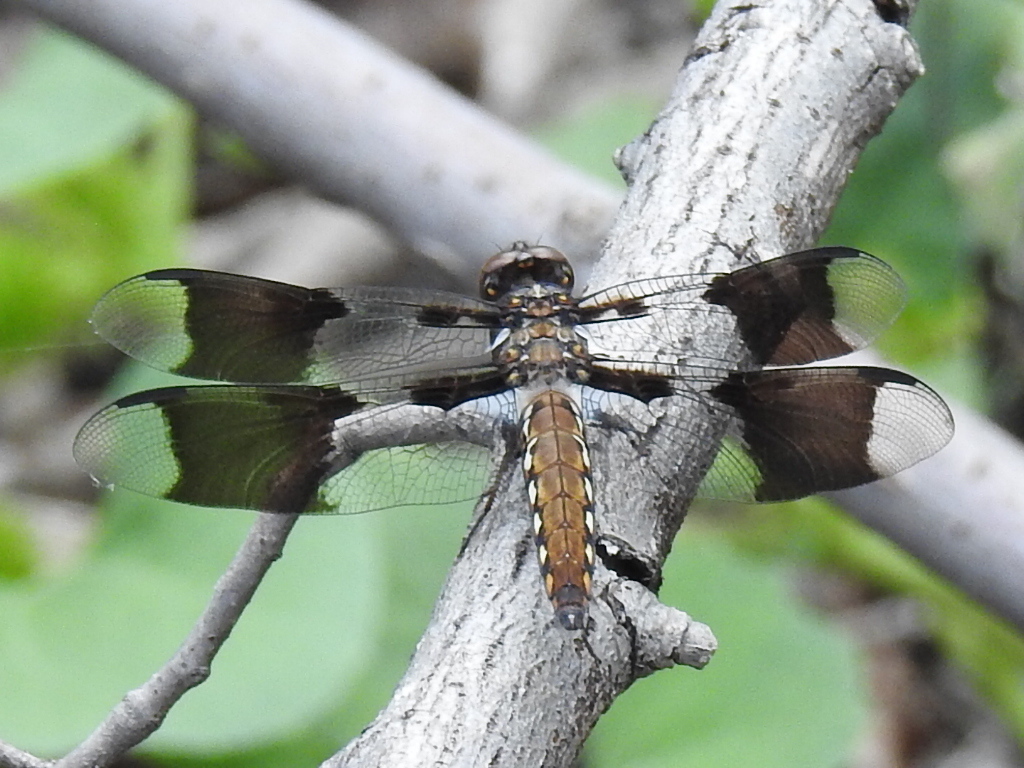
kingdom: Animalia
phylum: Arthropoda
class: Insecta
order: Odonata
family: Libellulidae
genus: Plathemis
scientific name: Plathemis lydia
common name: Common whitetail
